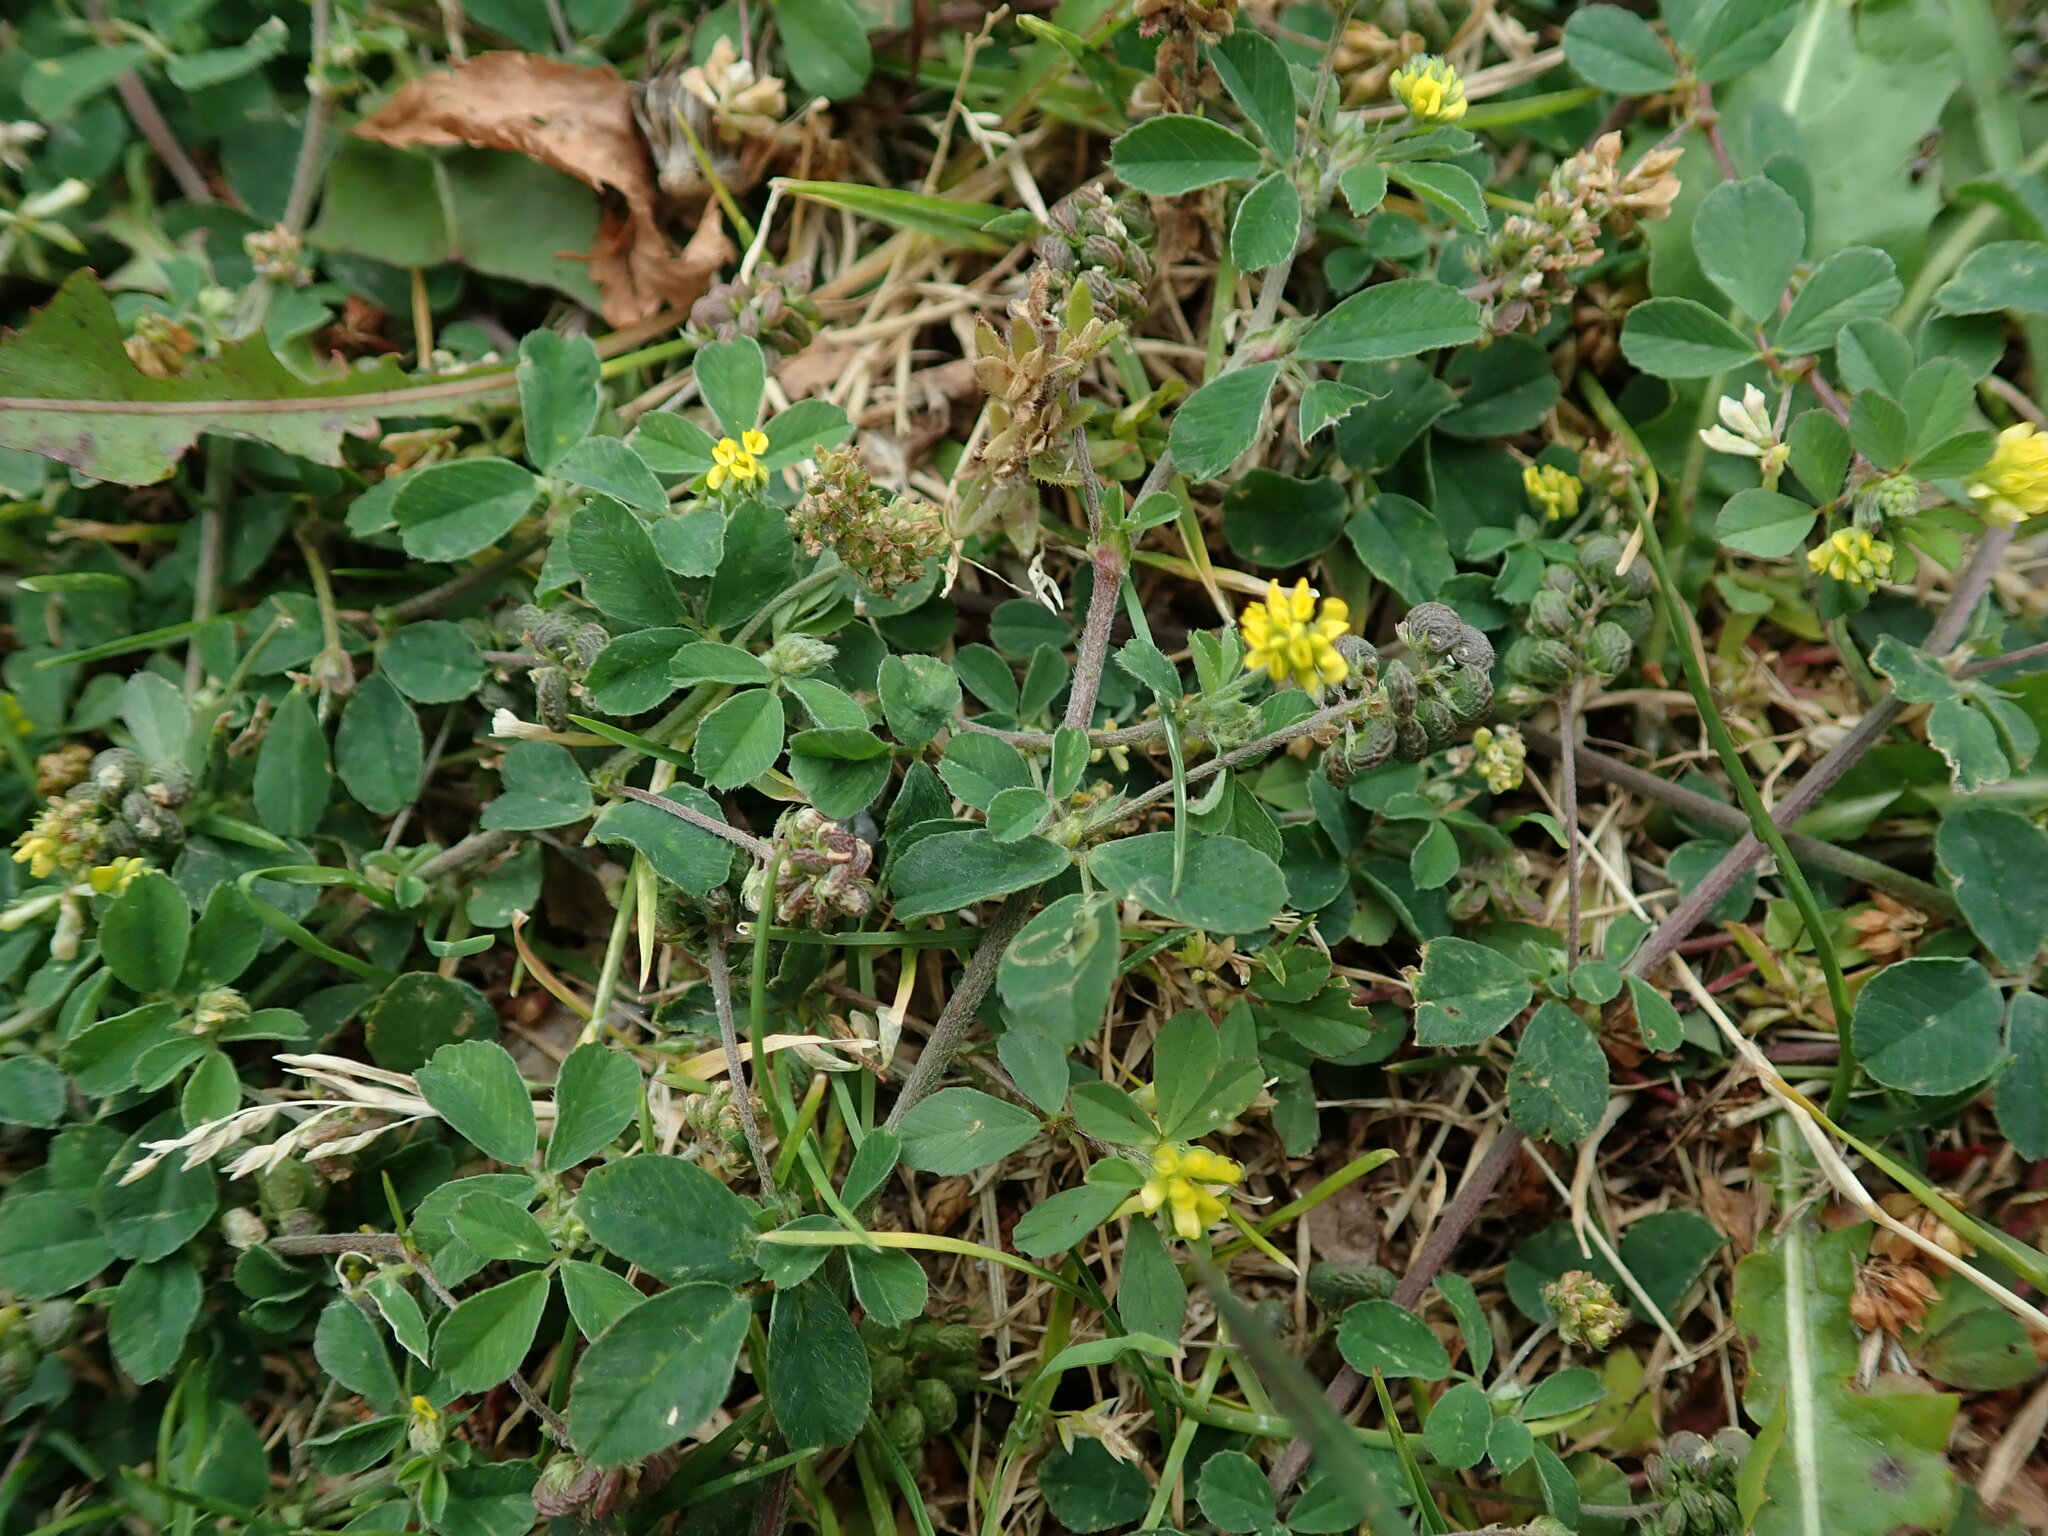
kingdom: Plantae
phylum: Tracheophyta
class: Magnoliopsida
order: Fabales
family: Fabaceae
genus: Medicago
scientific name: Medicago lupulina
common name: Black medick
